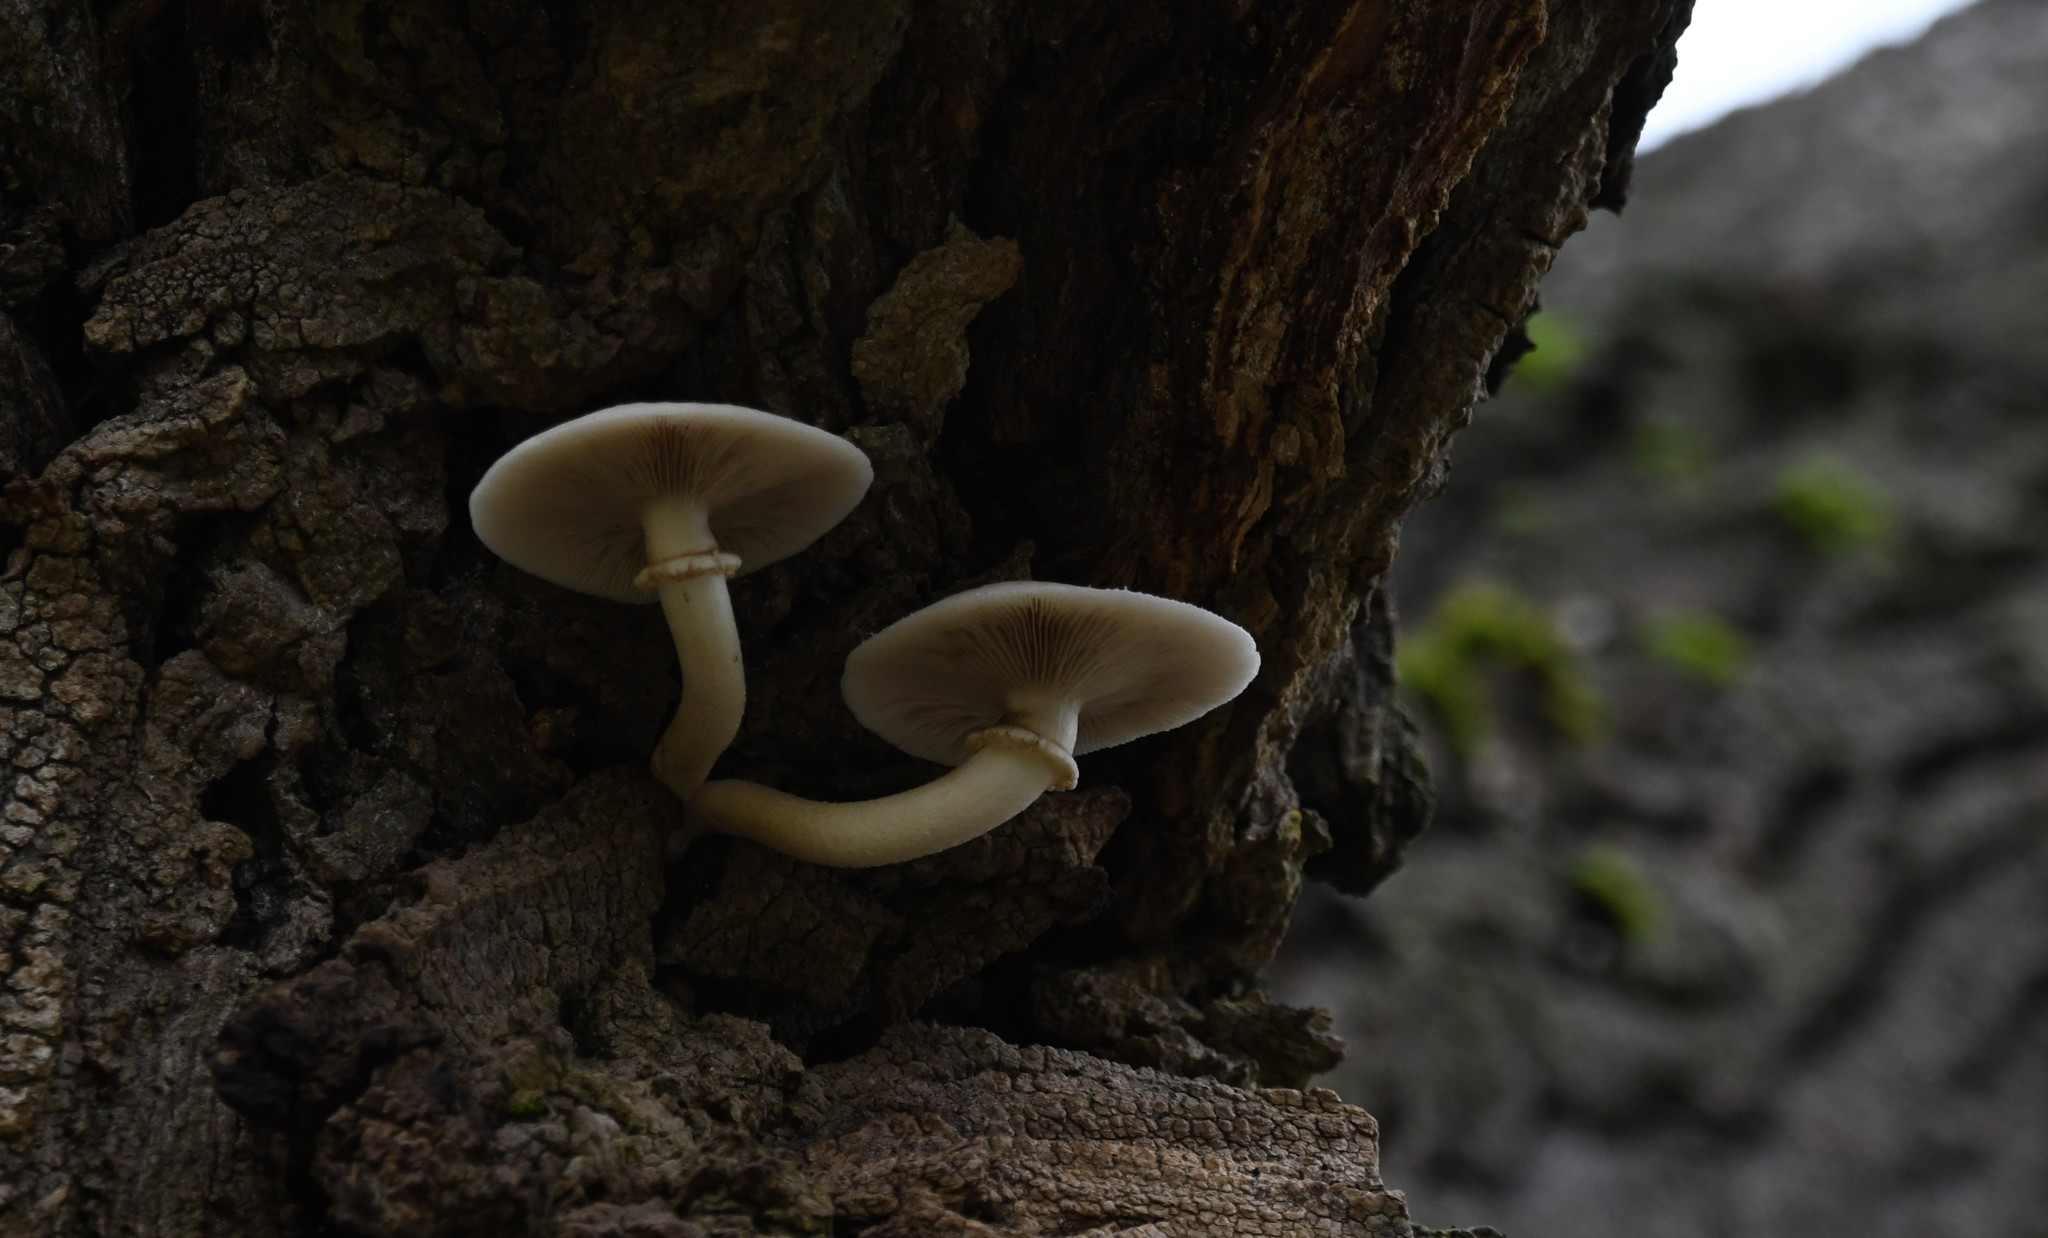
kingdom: Fungi
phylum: Basidiomycota
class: Agaricomycetes
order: Agaricales
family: Tubariaceae
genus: Cyclocybe
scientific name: Cyclocybe cylindracea
